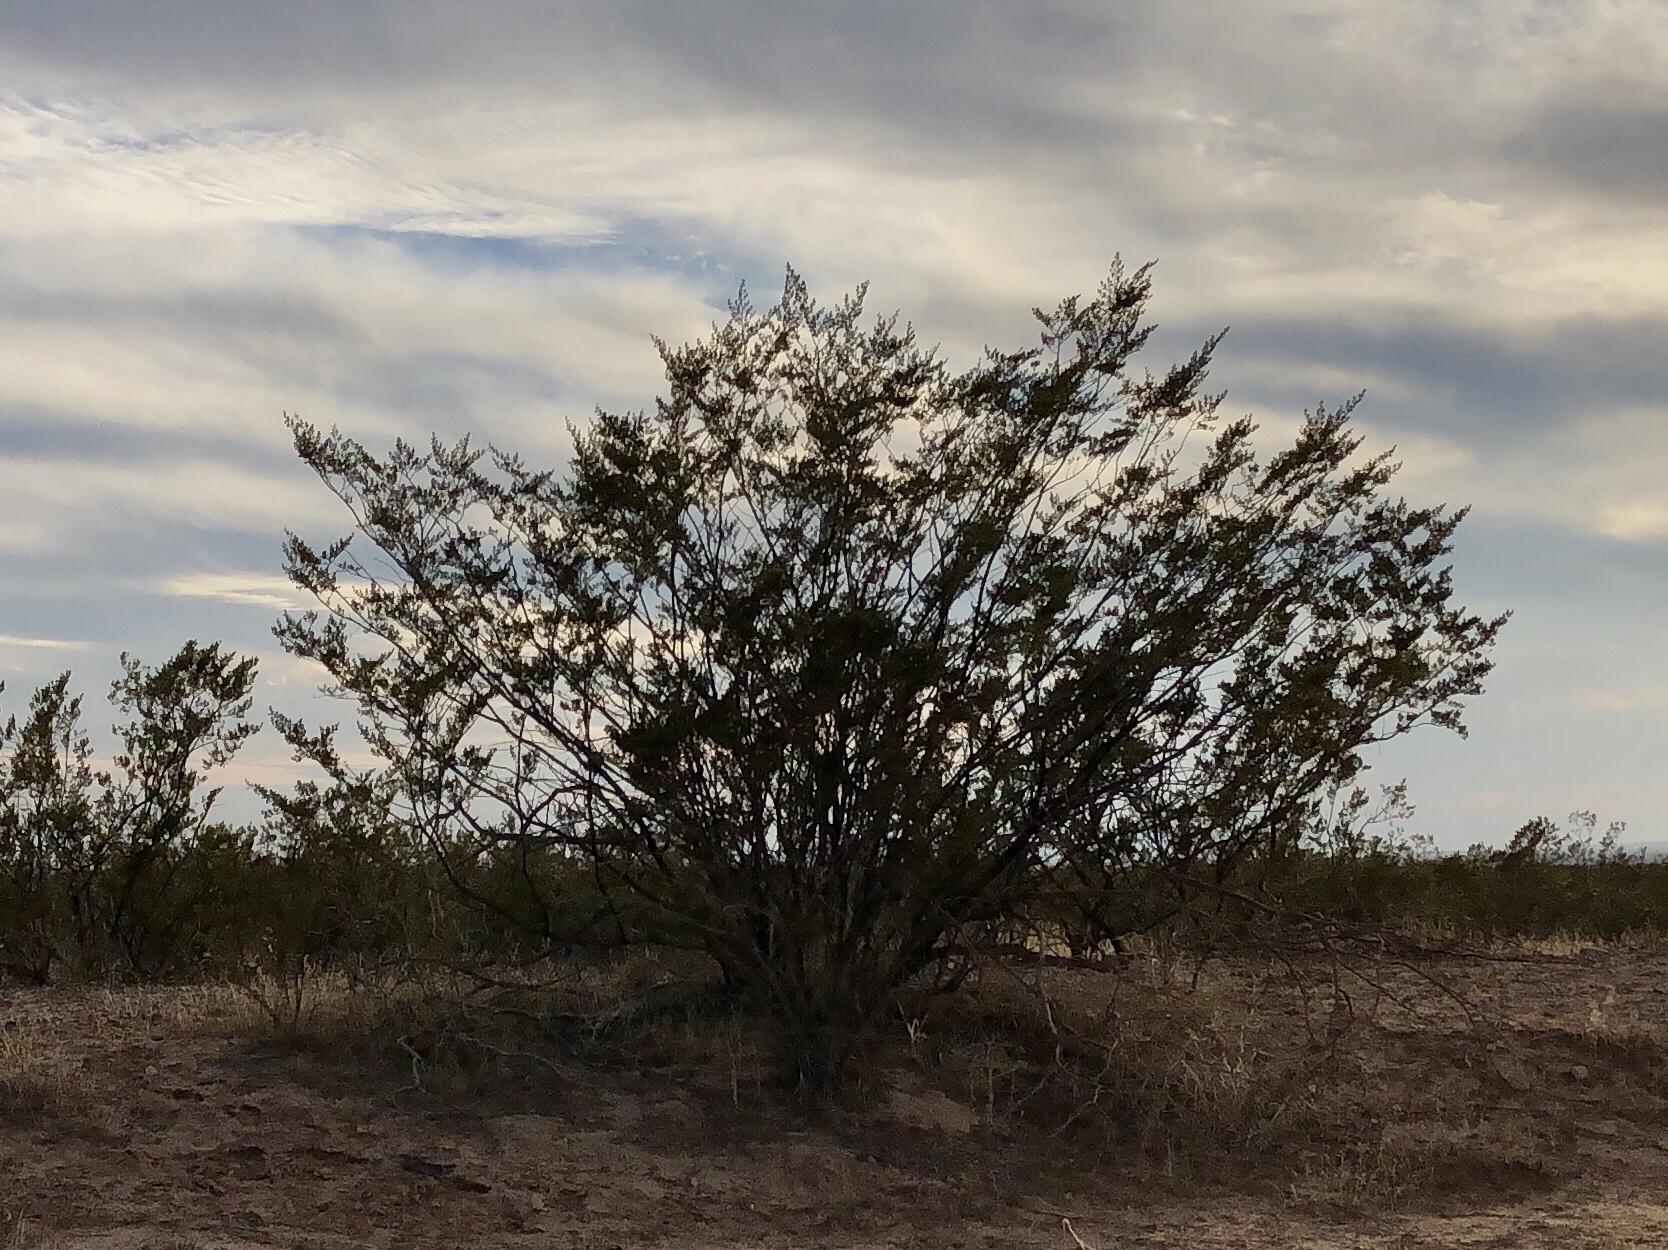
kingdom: Plantae
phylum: Tracheophyta
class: Magnoliopsida
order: Zygophyllales
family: Zygophyllaceae
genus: Larrea
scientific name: Larrea tridentata
